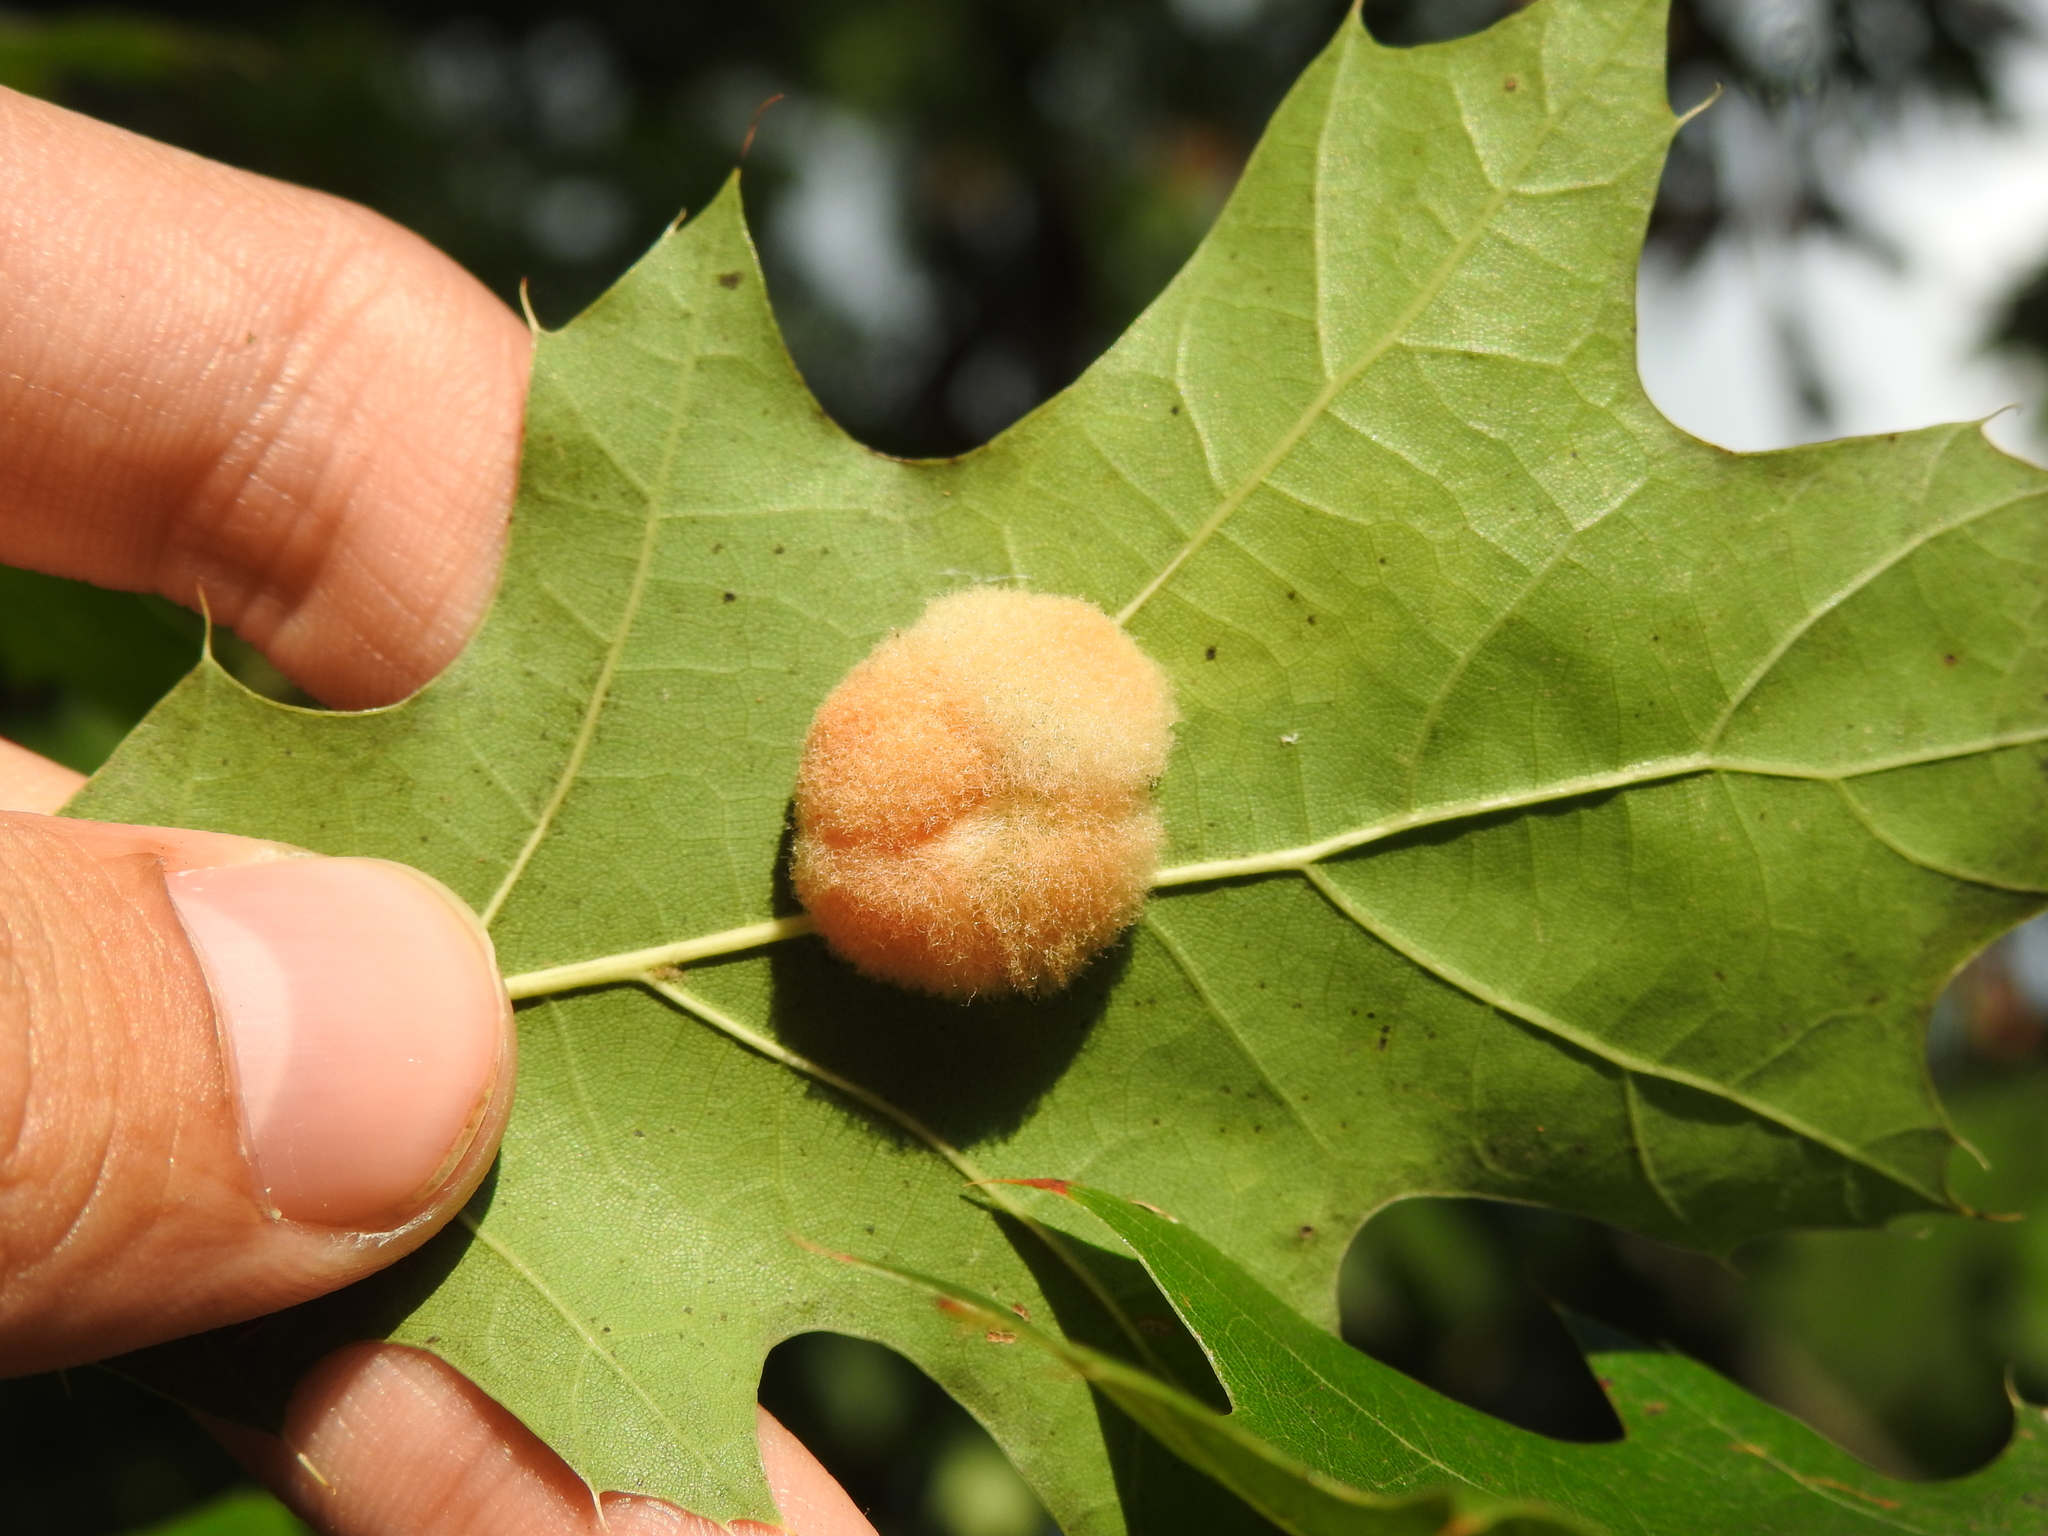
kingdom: Animalia
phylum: Arthropoda
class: Insecta
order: Hymenoptera
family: Cynipidae
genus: Callirhytis
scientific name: Callirhytis
